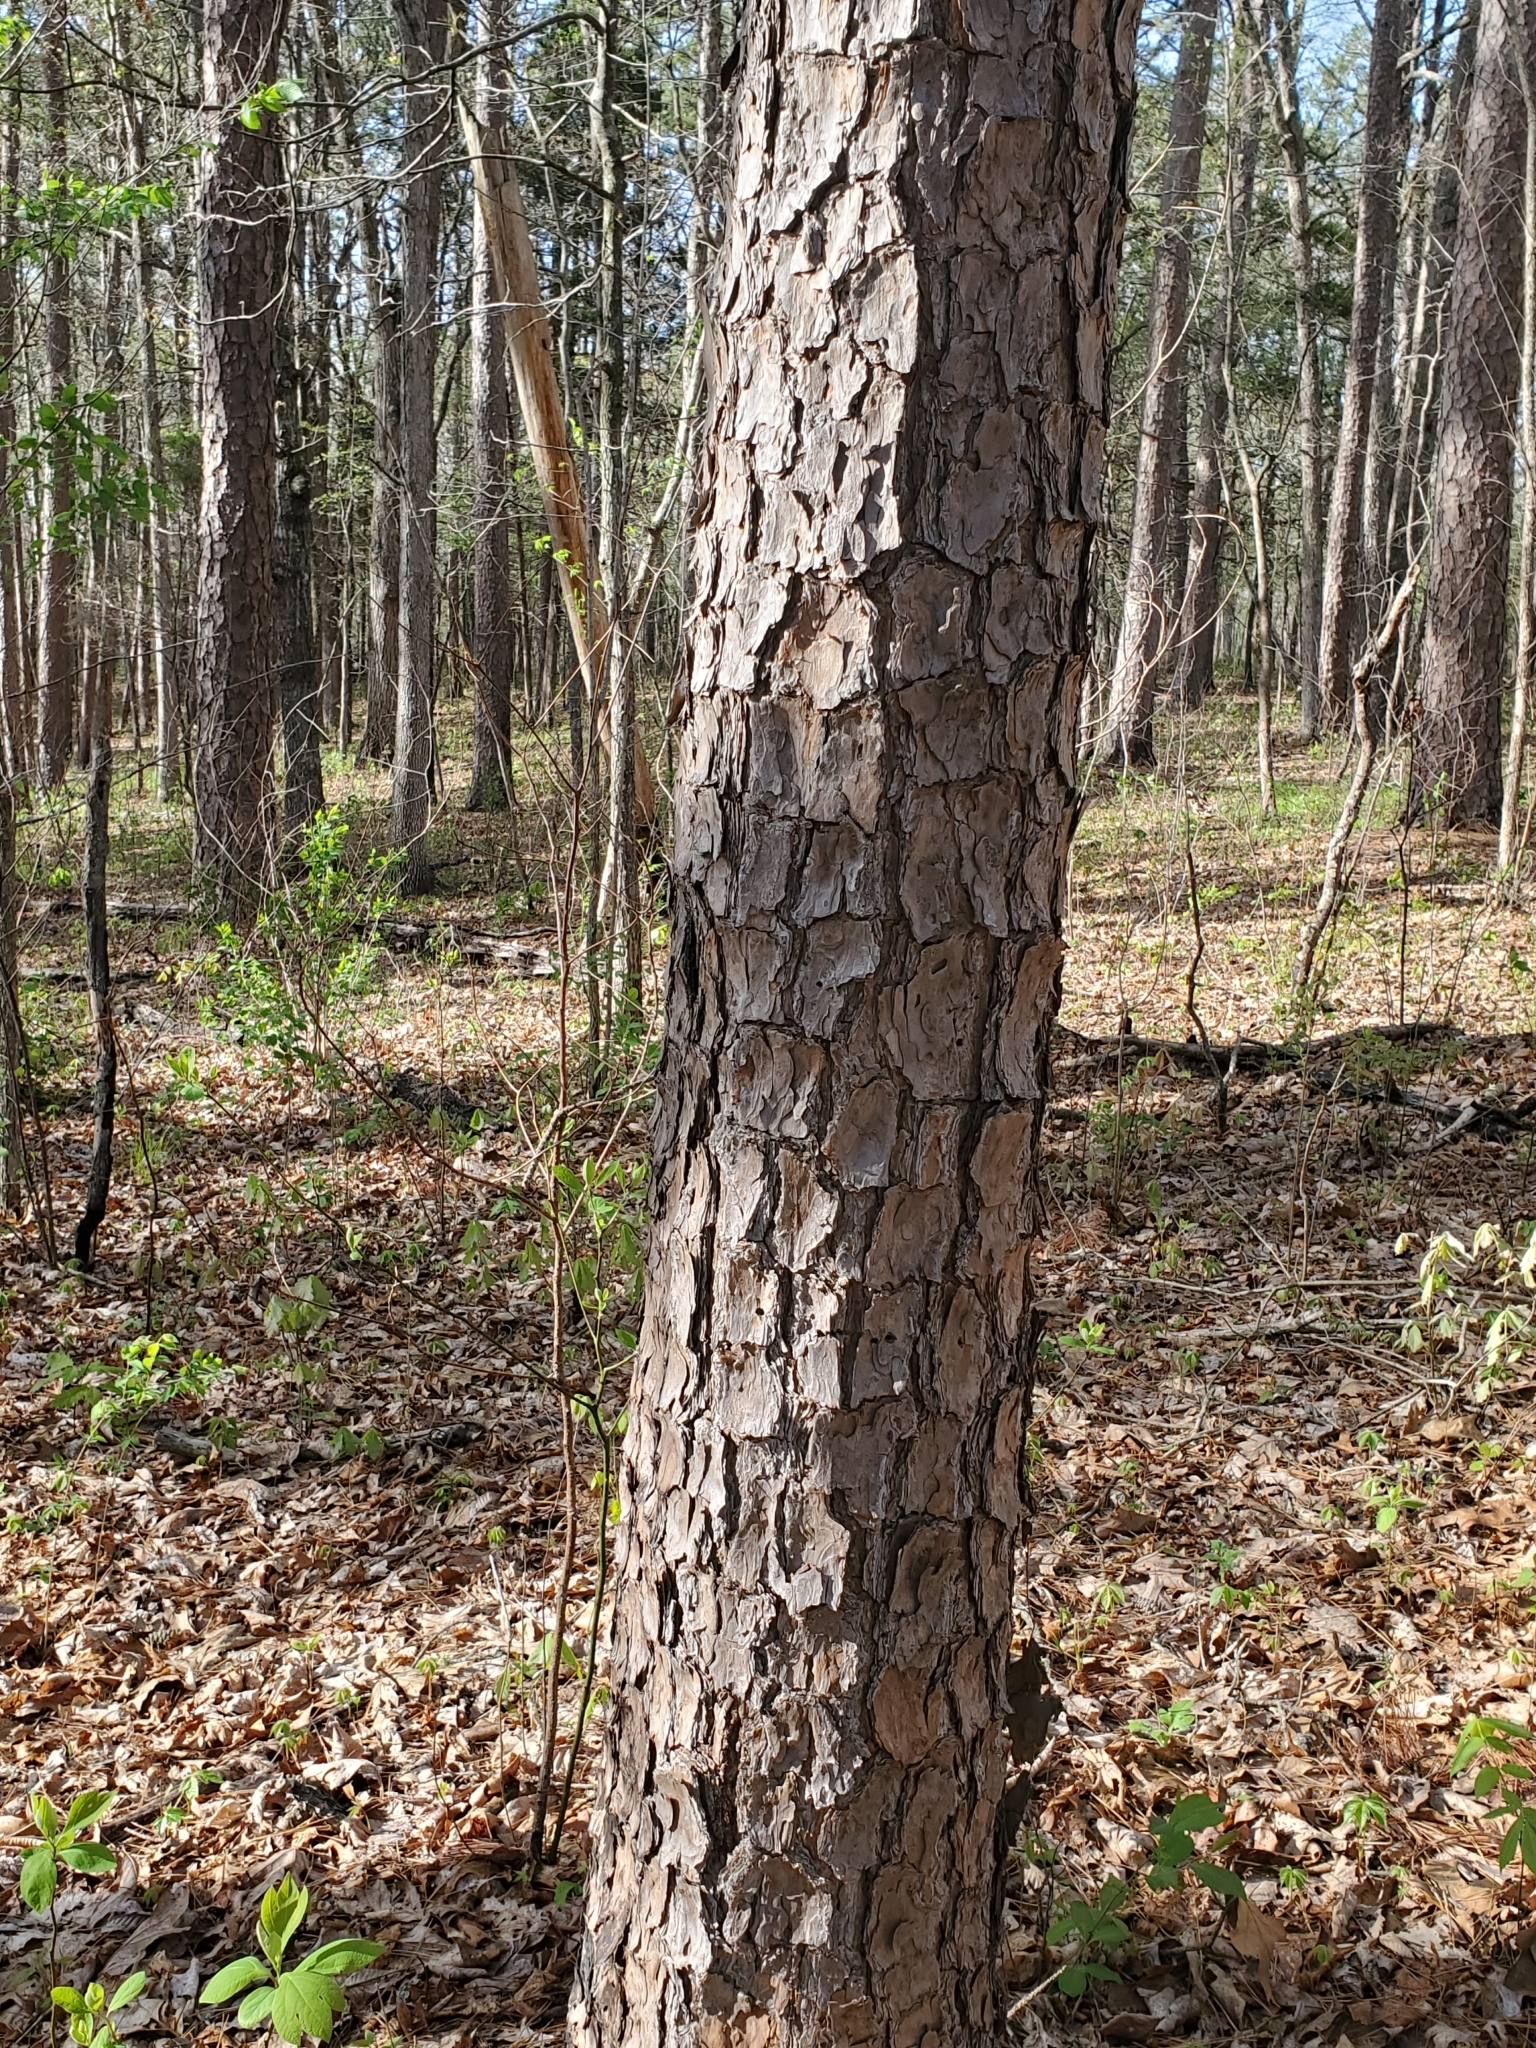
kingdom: Plantae
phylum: Tracheophyta
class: Pinopsida
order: Pinales
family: Pinaceae
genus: Pinus
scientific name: Pinus echinata
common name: Shortleaf pine
